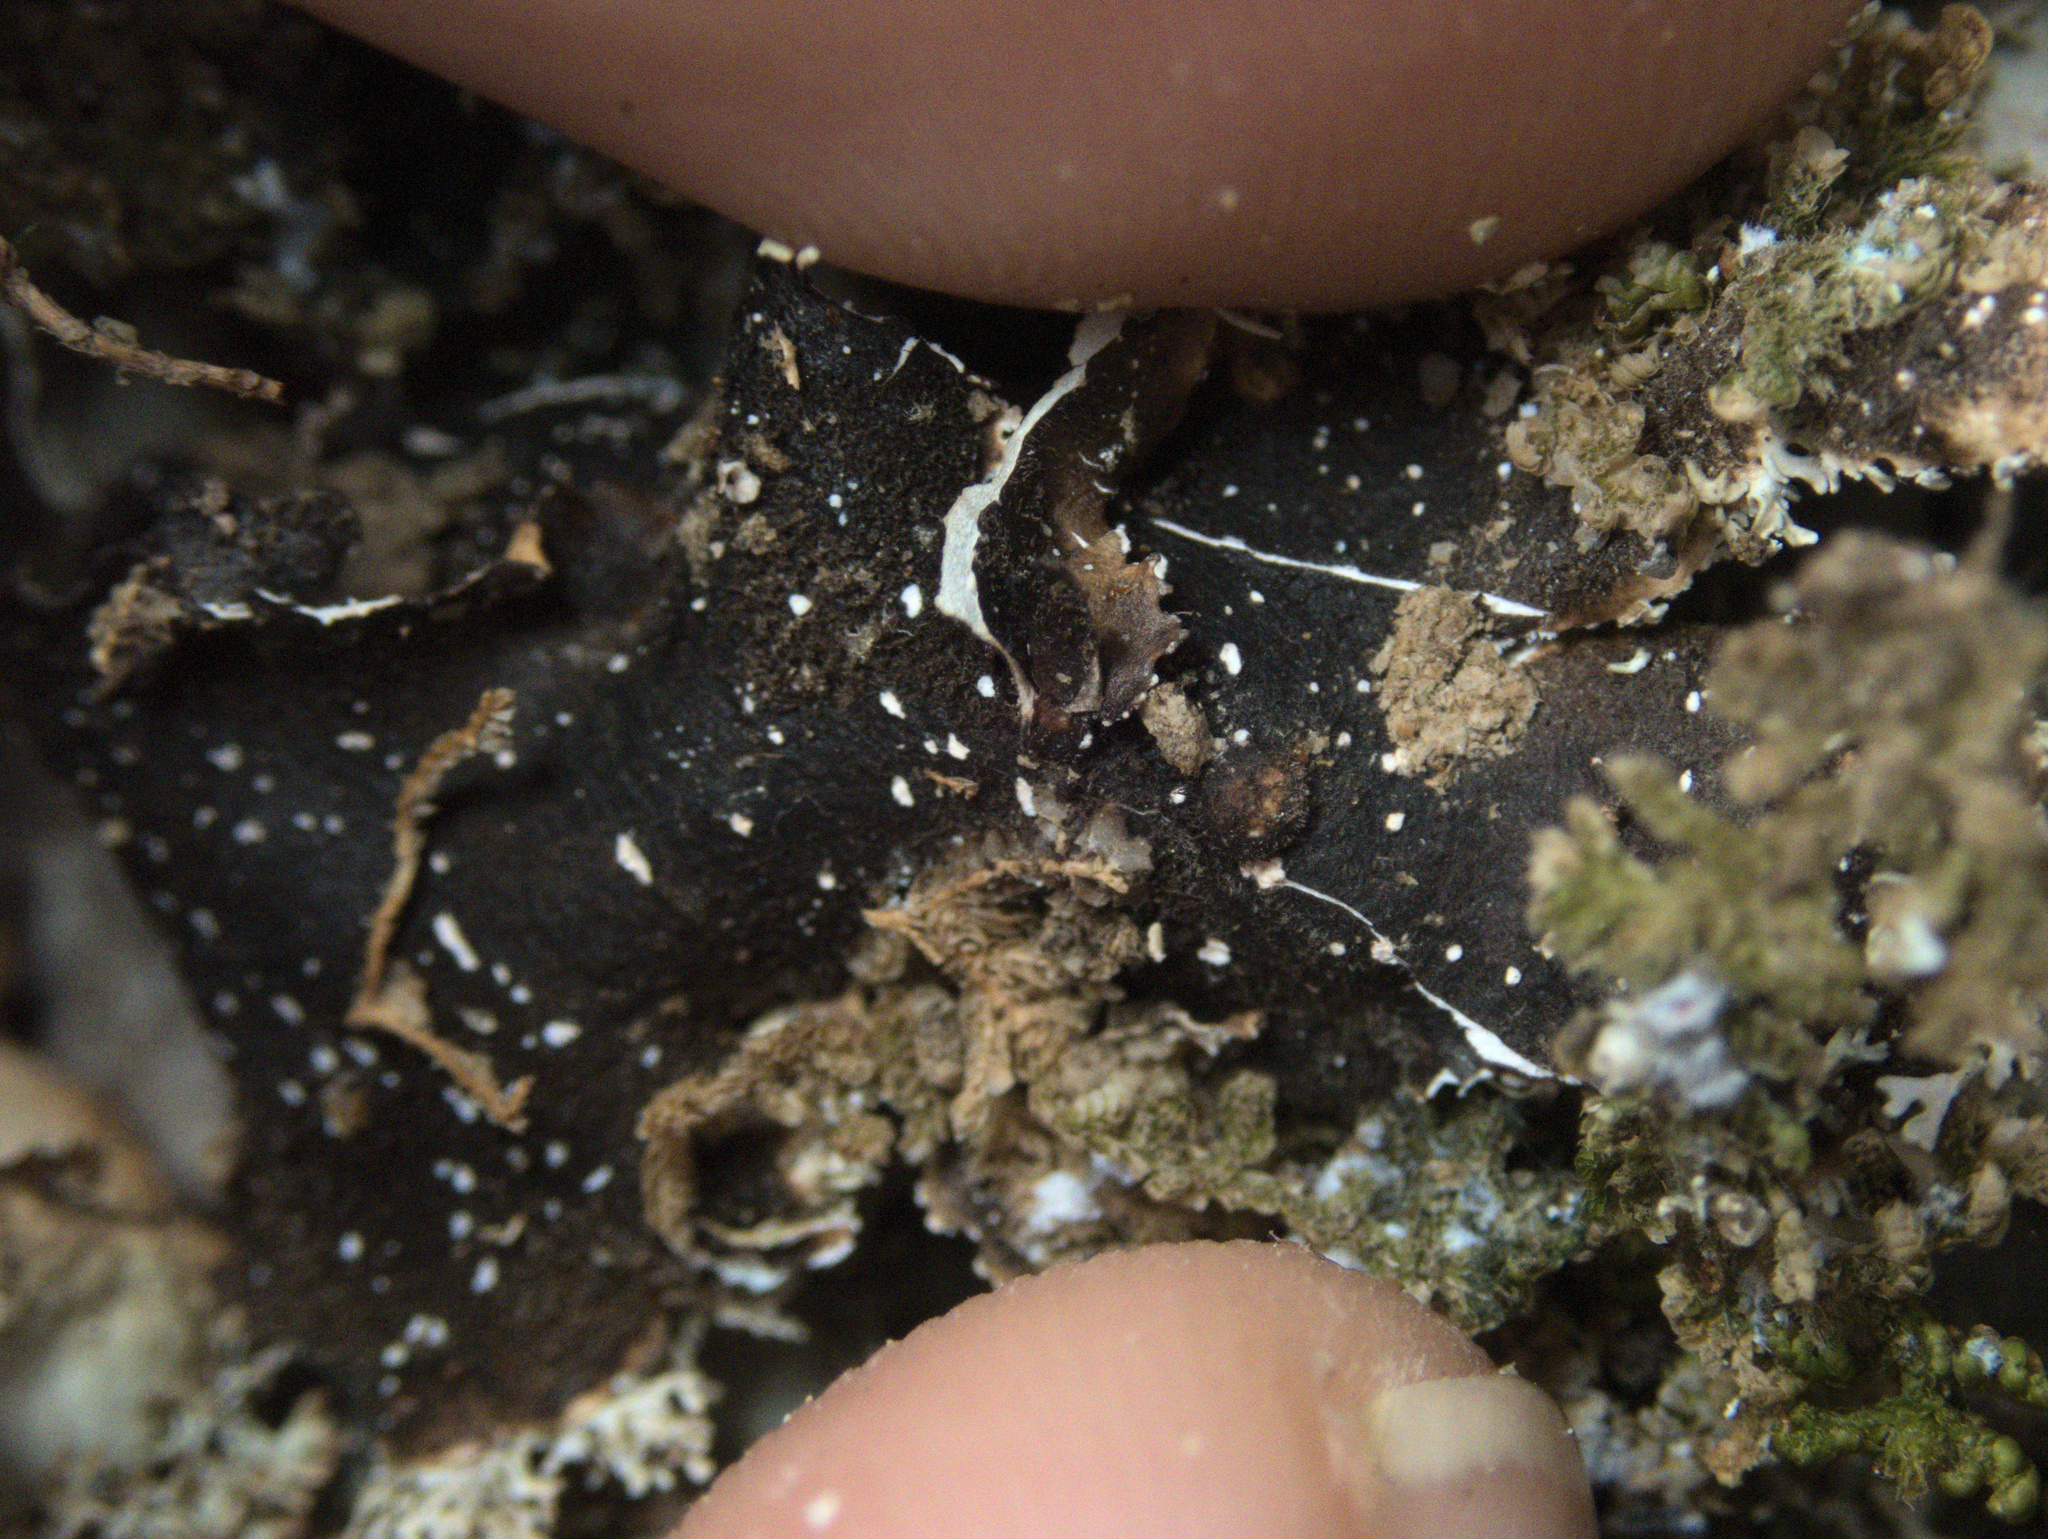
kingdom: Fungi
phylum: Ascomycota
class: Lecanoromycetes
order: Peltigerales
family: Lobariaceae
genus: Pseudocyphellaria
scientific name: Pseudocyphellaria glabra
